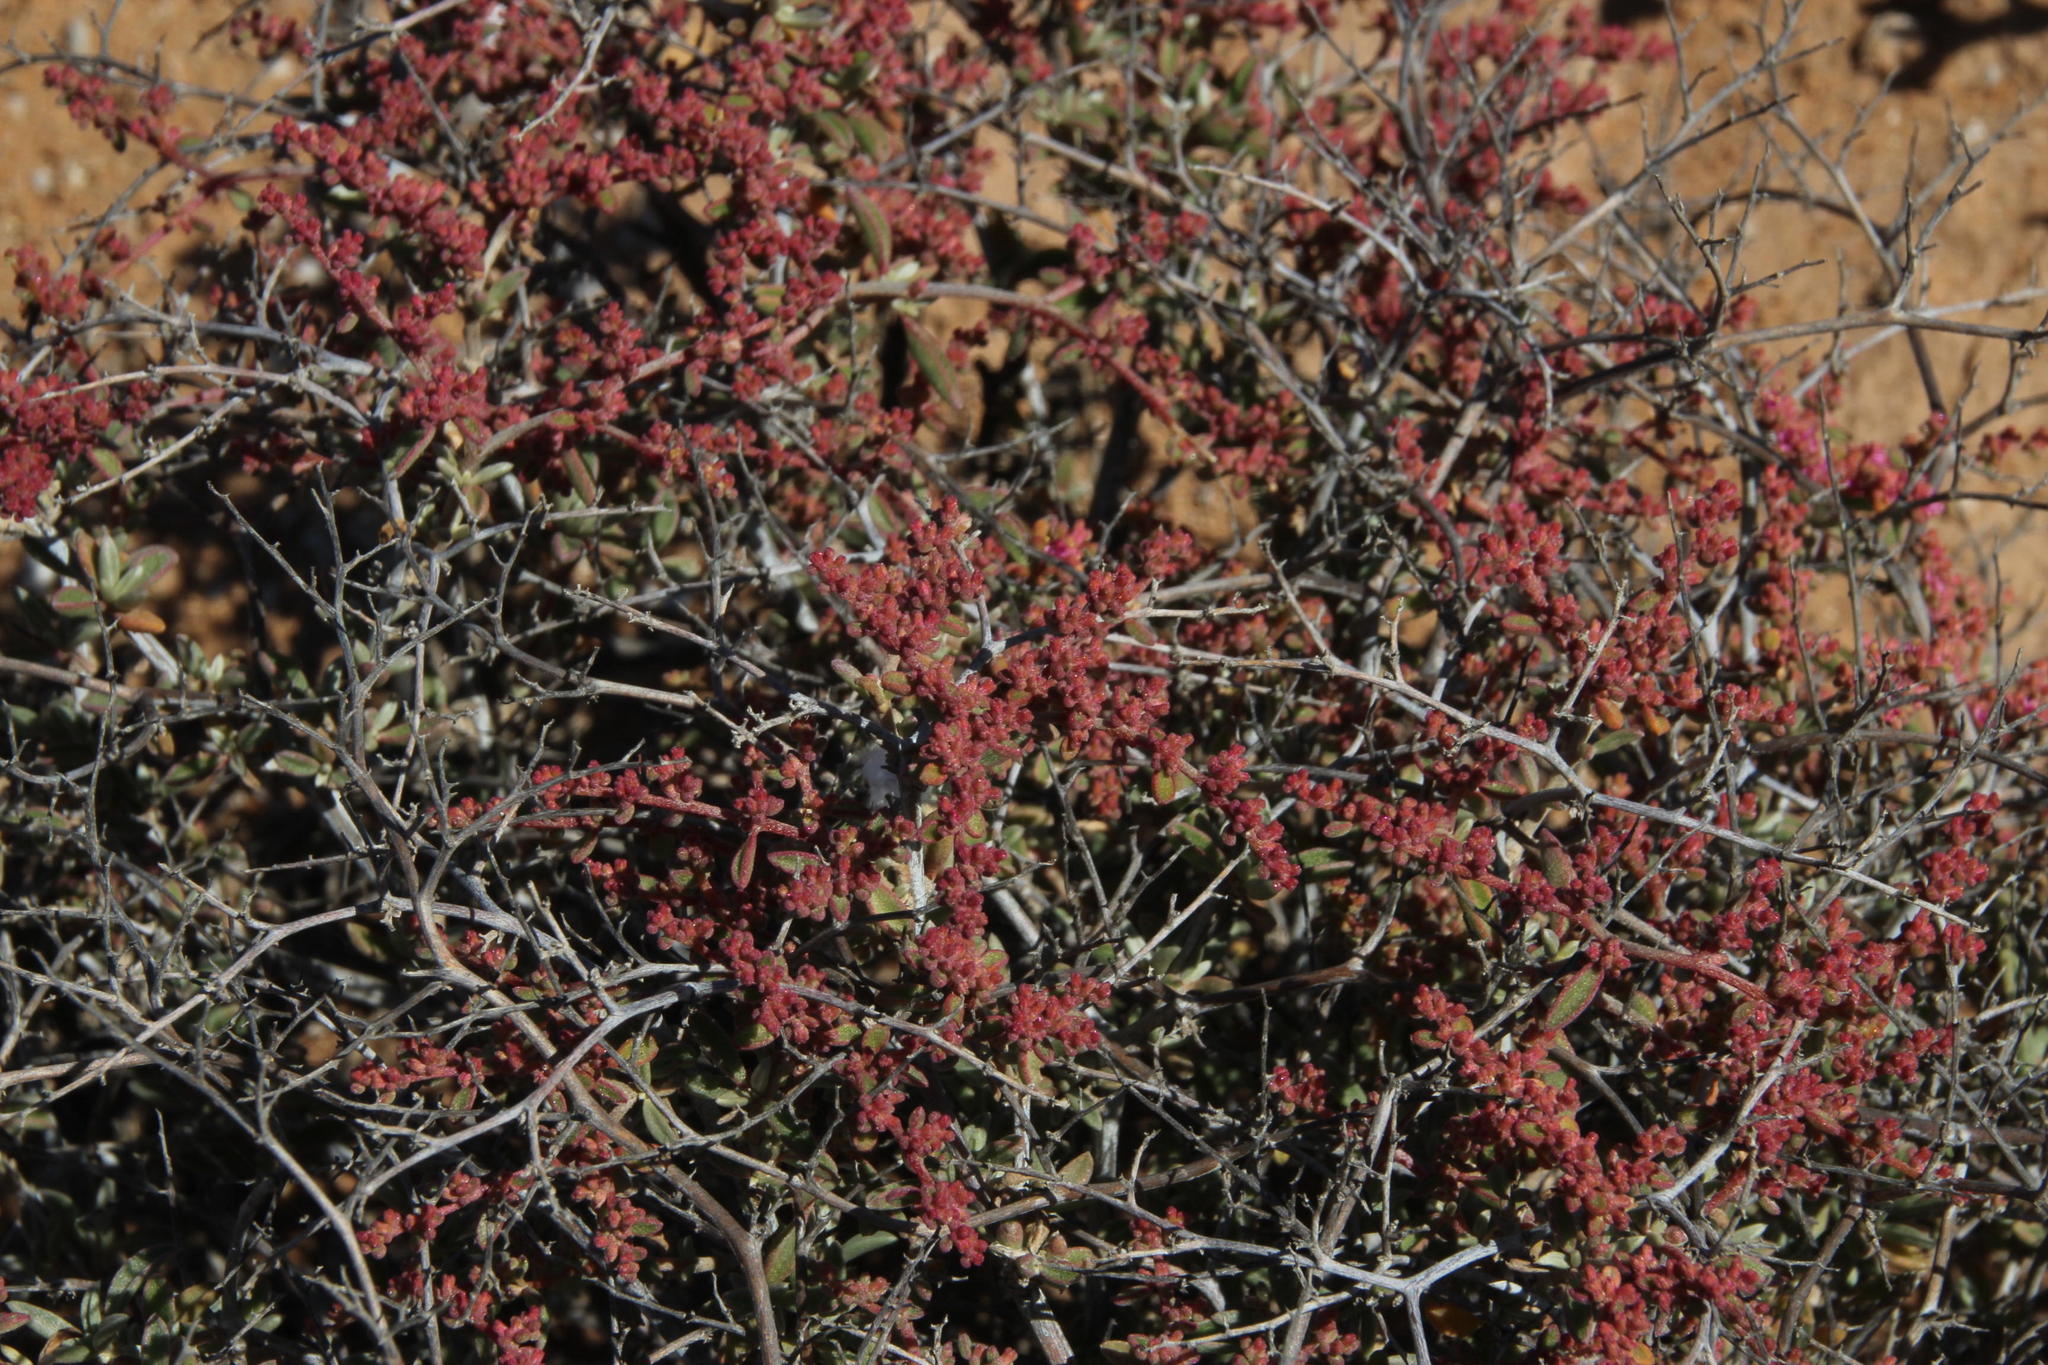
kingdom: Plantae
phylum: Tracheophyta
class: Magnoliopsida
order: Caryophyllales
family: Aizoaceae
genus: Aizoon
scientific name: Aizoon fruticosum
